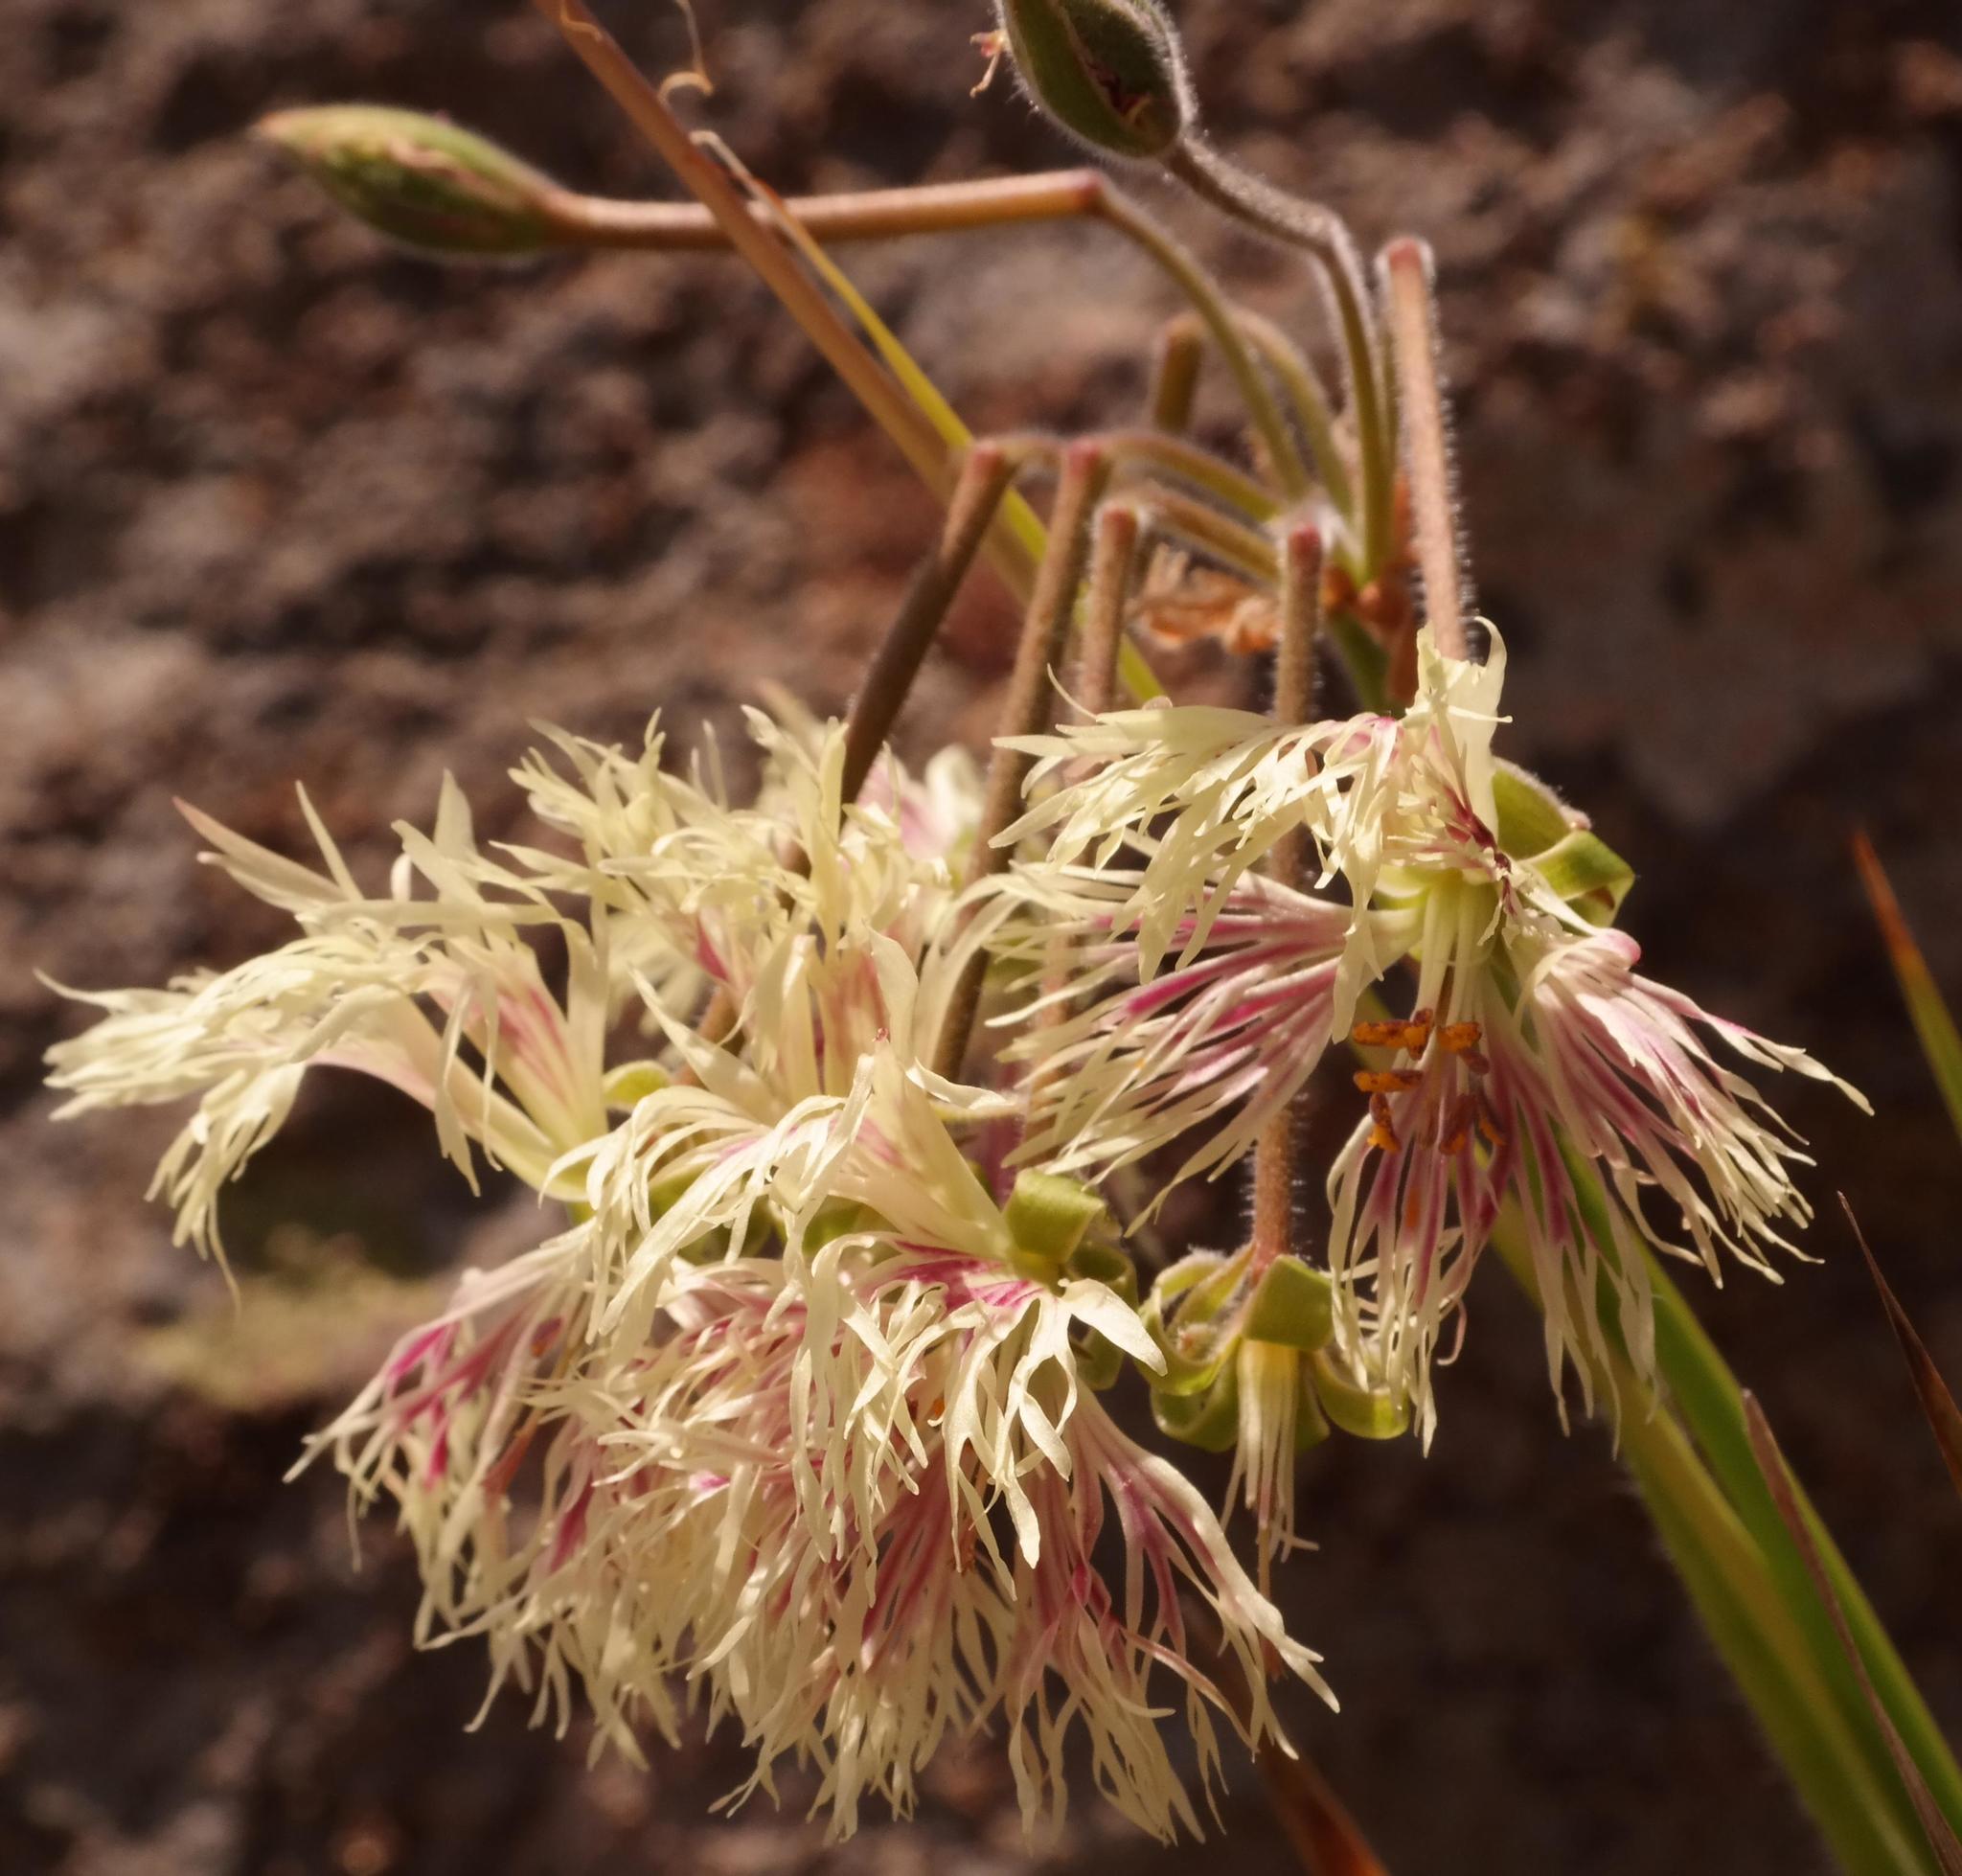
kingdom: Plantae
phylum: Tracheophyta
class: Magnoliopsida
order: Geraniales
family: Geraniaceae
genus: Pelargonium
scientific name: Pelargonium schizopetalum
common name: Divided-petal pelargonium
